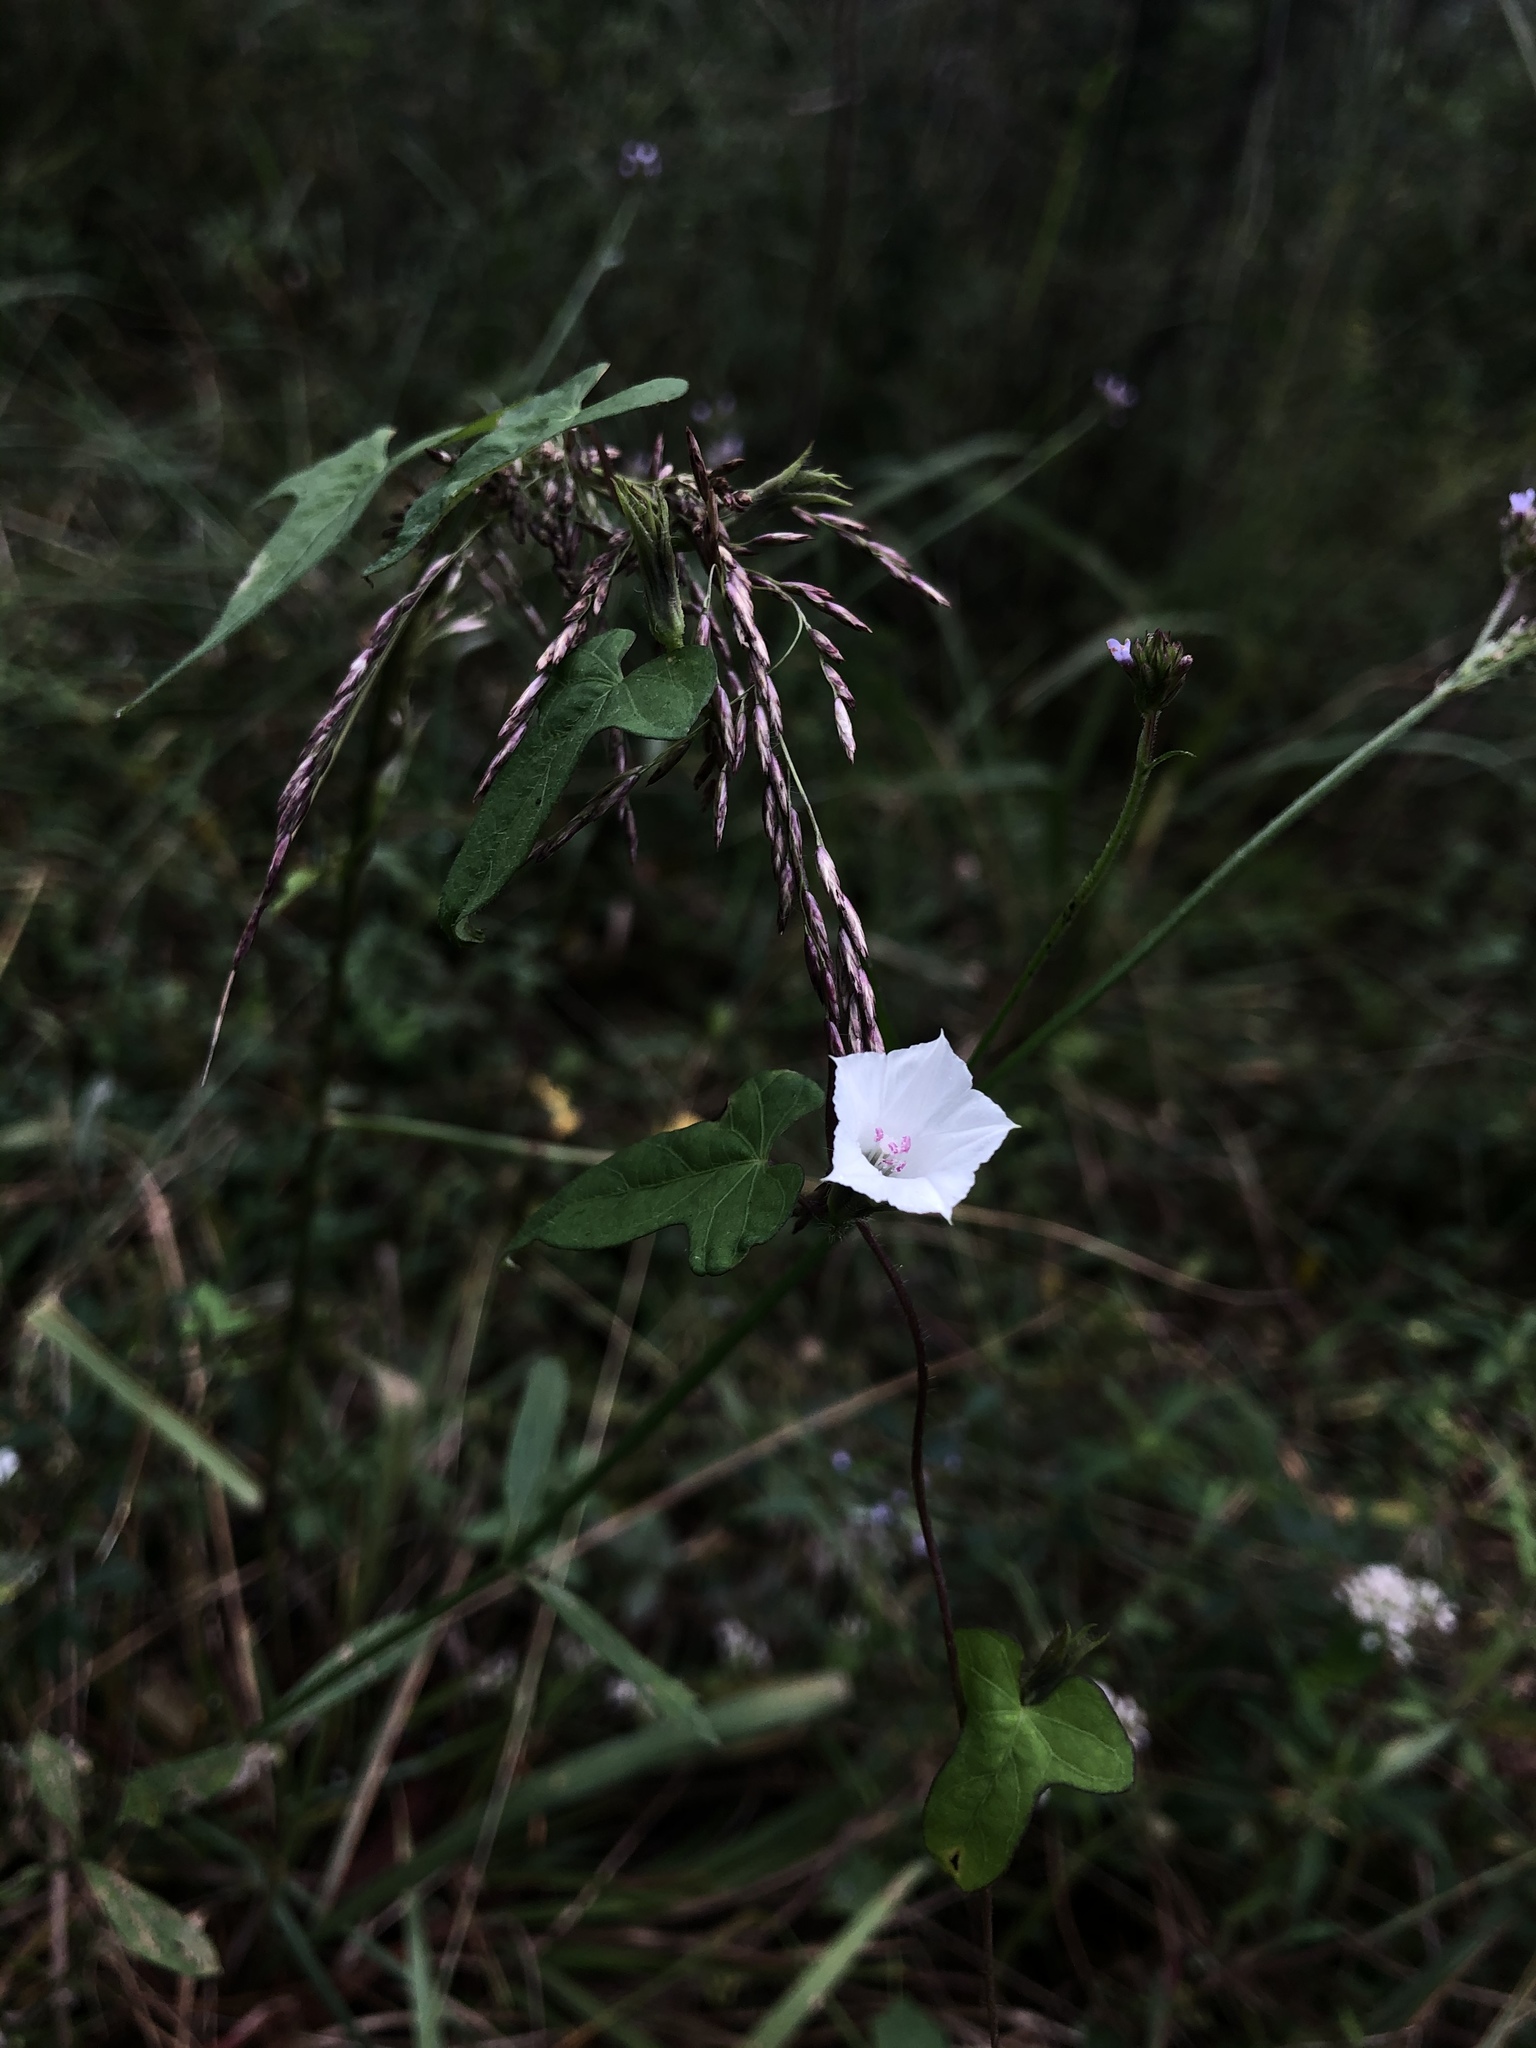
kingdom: Plantae
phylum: Tracheophyta
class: Magnoliopsida
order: Solanales
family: Convolvulaceae
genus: Ipomoea
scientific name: Ipomoea lacunosa
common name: White morning-glory
